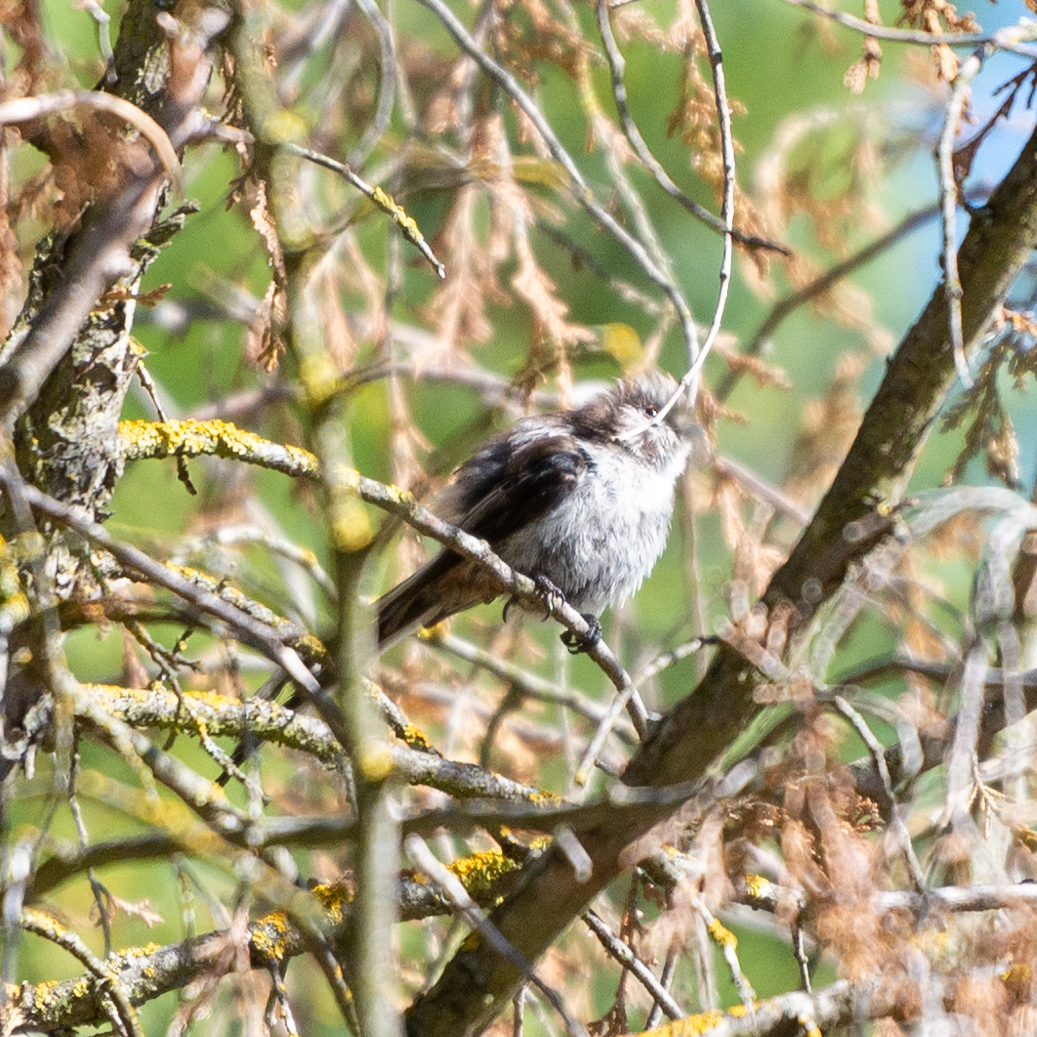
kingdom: Animalia
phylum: Chordata
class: Aves
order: Passeriformes
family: Aegithalidae
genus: Aegithalos
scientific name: Aegithalos caudatus
